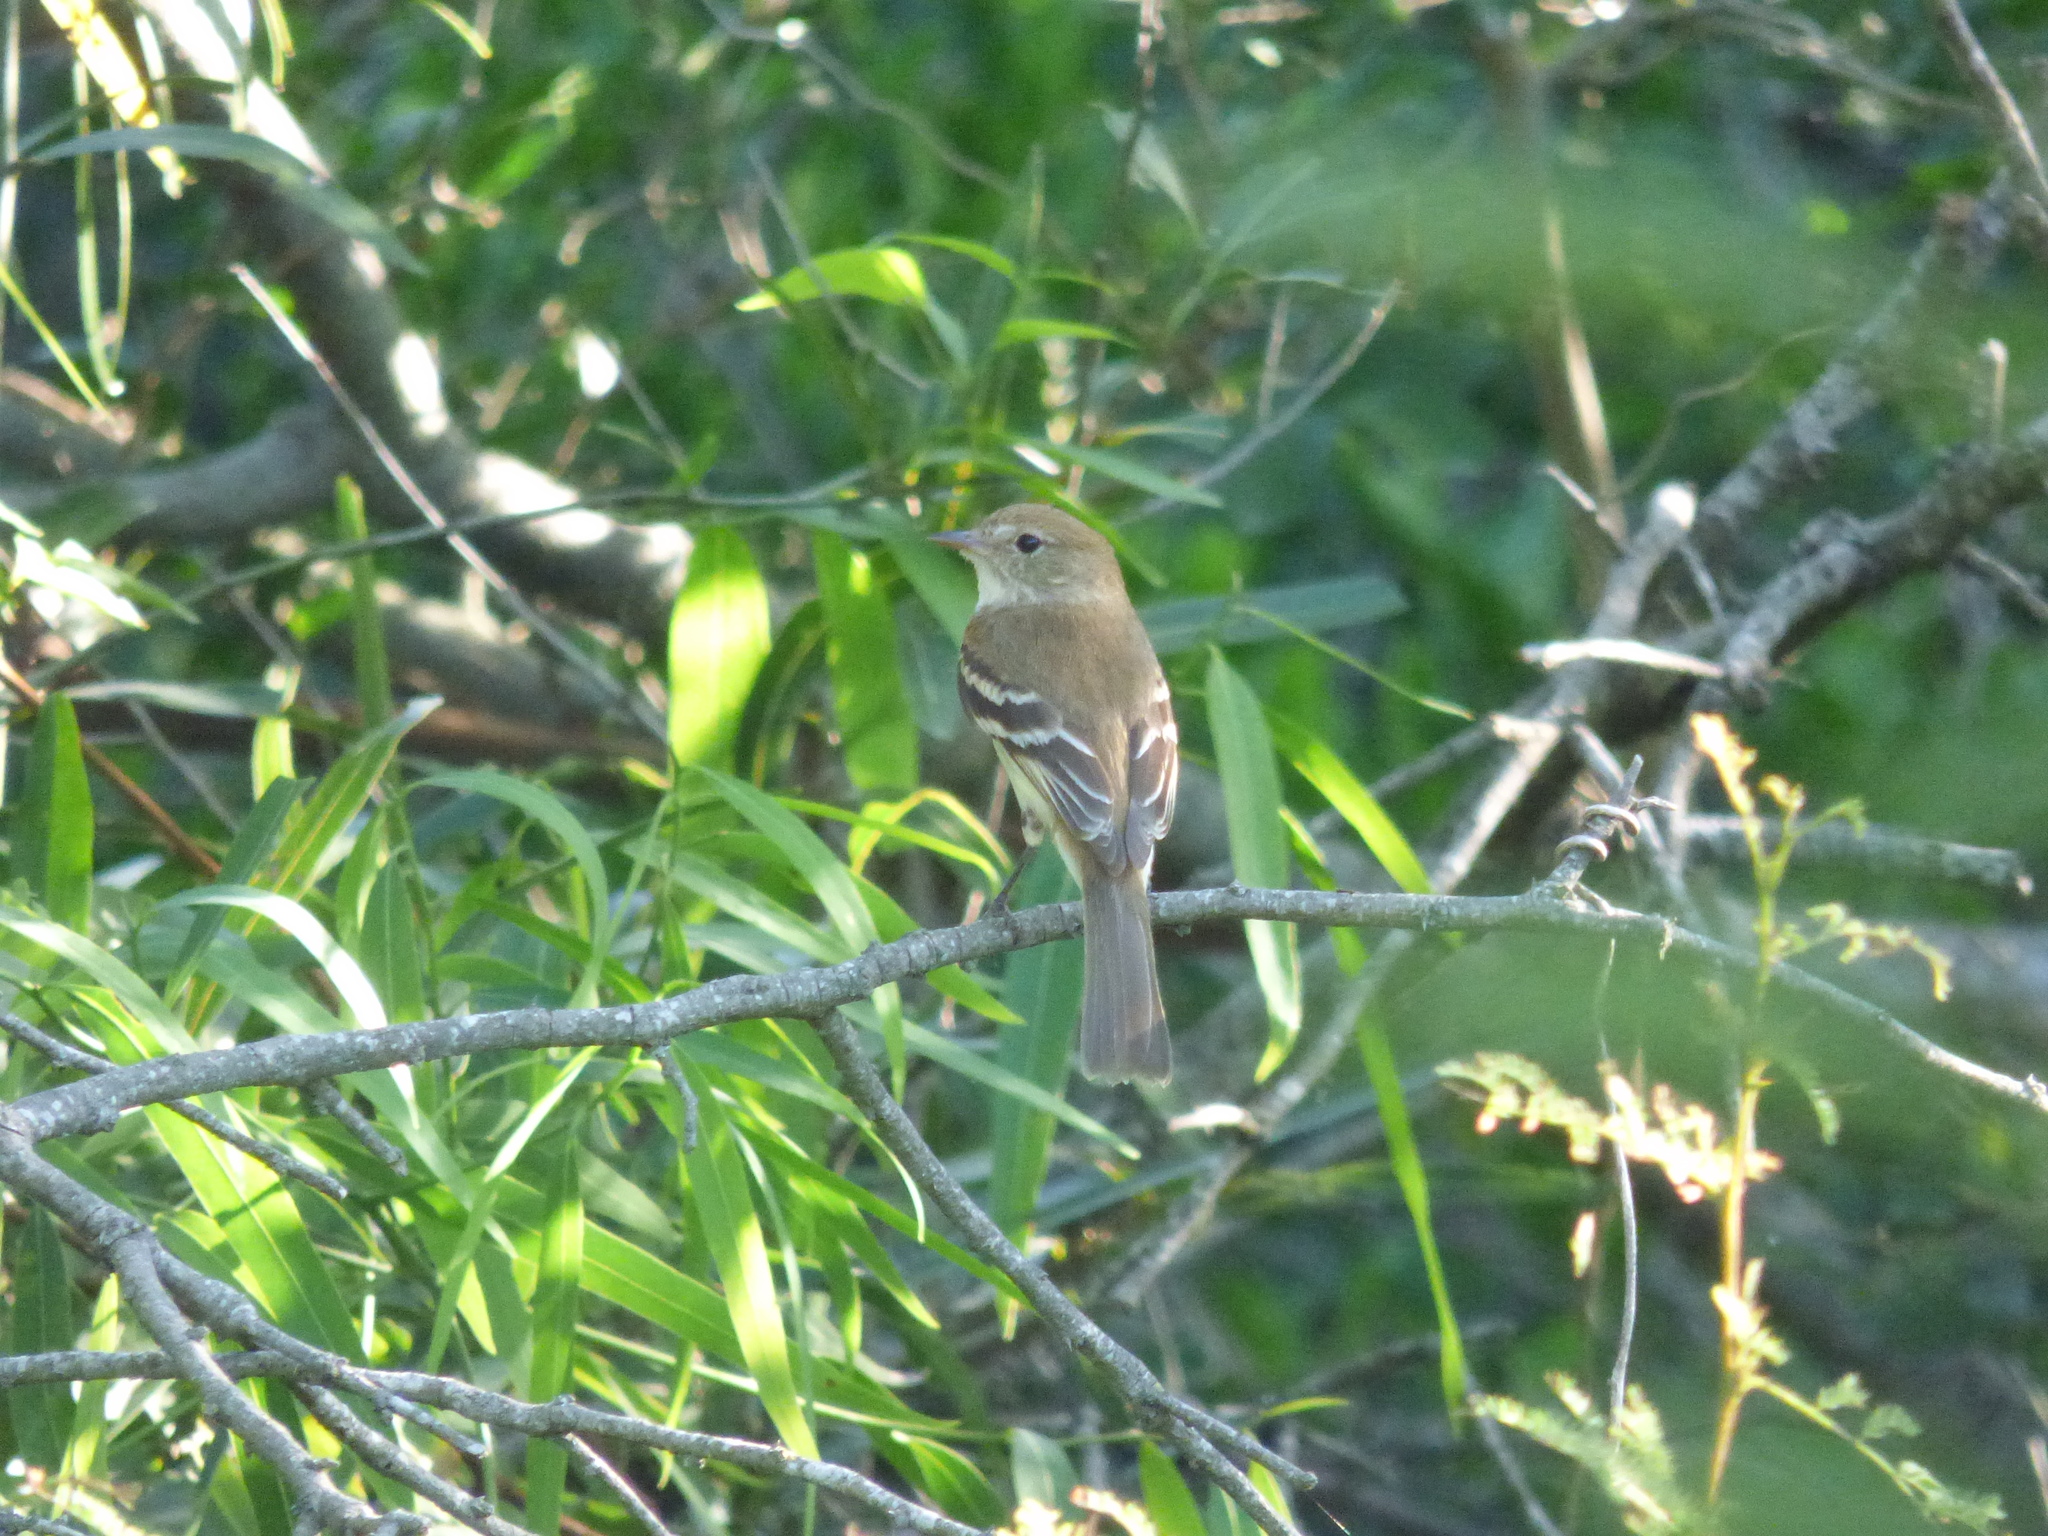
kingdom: Animalia
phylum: Chordata
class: Aves
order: Passeriformes
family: Tyrannidae
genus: Myiophobus
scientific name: Myiophobus fasciatus
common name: Bran-colored flycatcher
